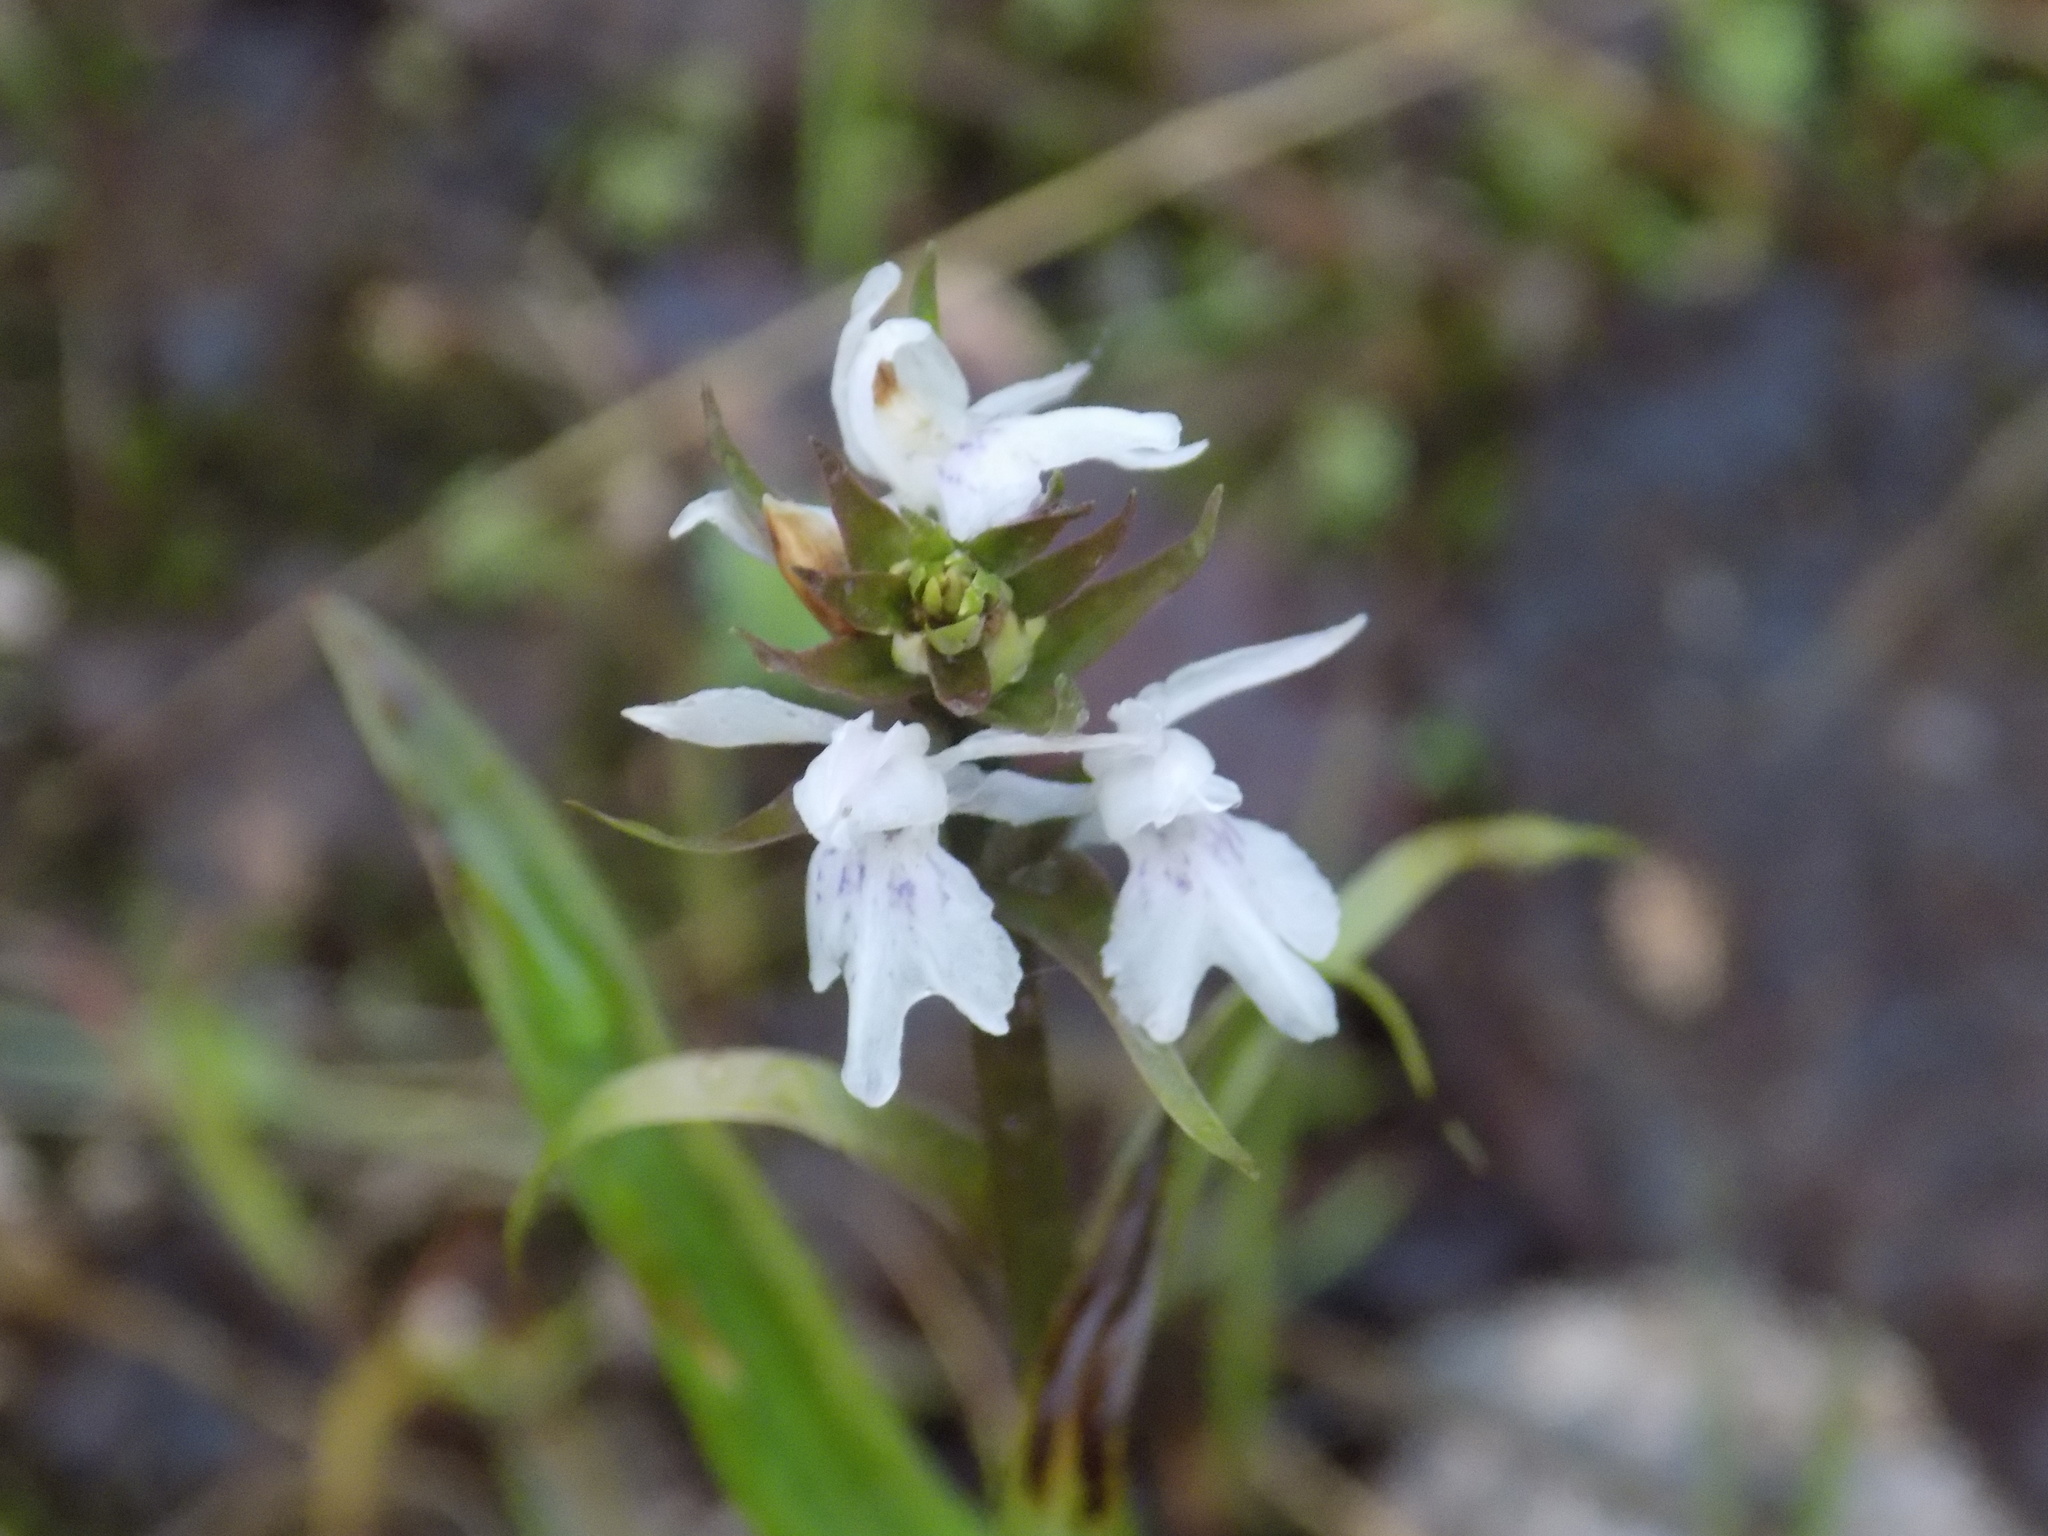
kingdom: Plantae
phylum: Tracheophyta
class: Liliopsida
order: Asparagales
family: Orchidaceae
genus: Dactylorhiza
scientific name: Dactylorhiza maculata
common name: Heath spotted-orchid
